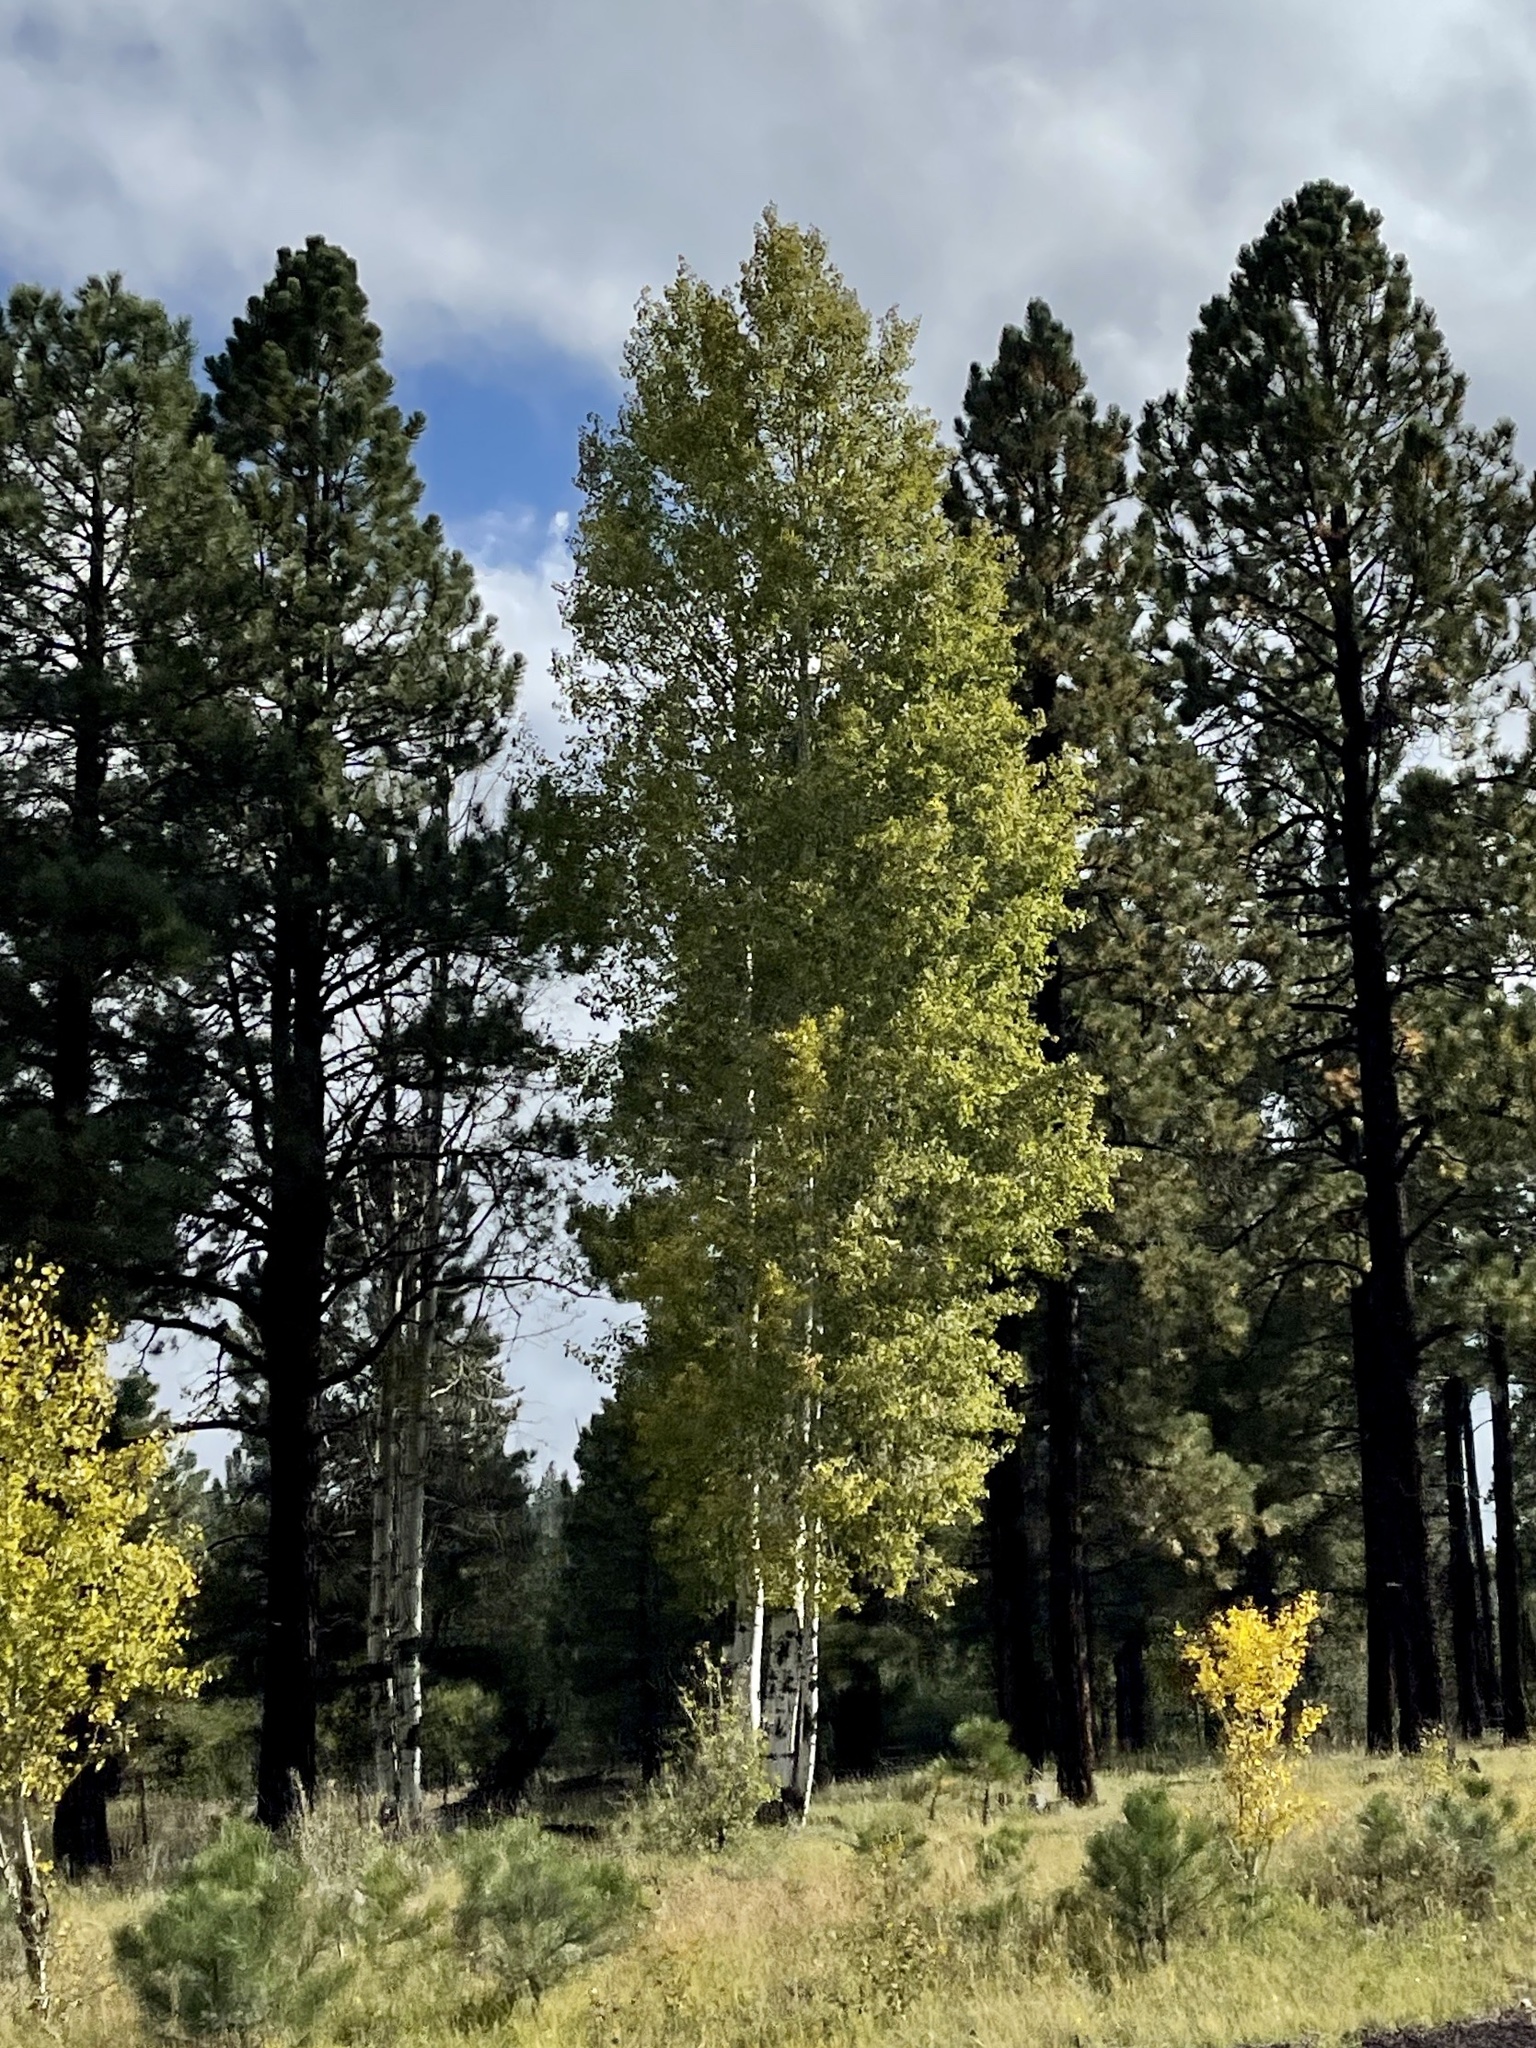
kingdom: Plantae
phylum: Tracheophyta
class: Magnoliopsida
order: Malpighiales
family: Salicaceae
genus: Populus
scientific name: Populus tremuloides
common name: Quaking aspen
